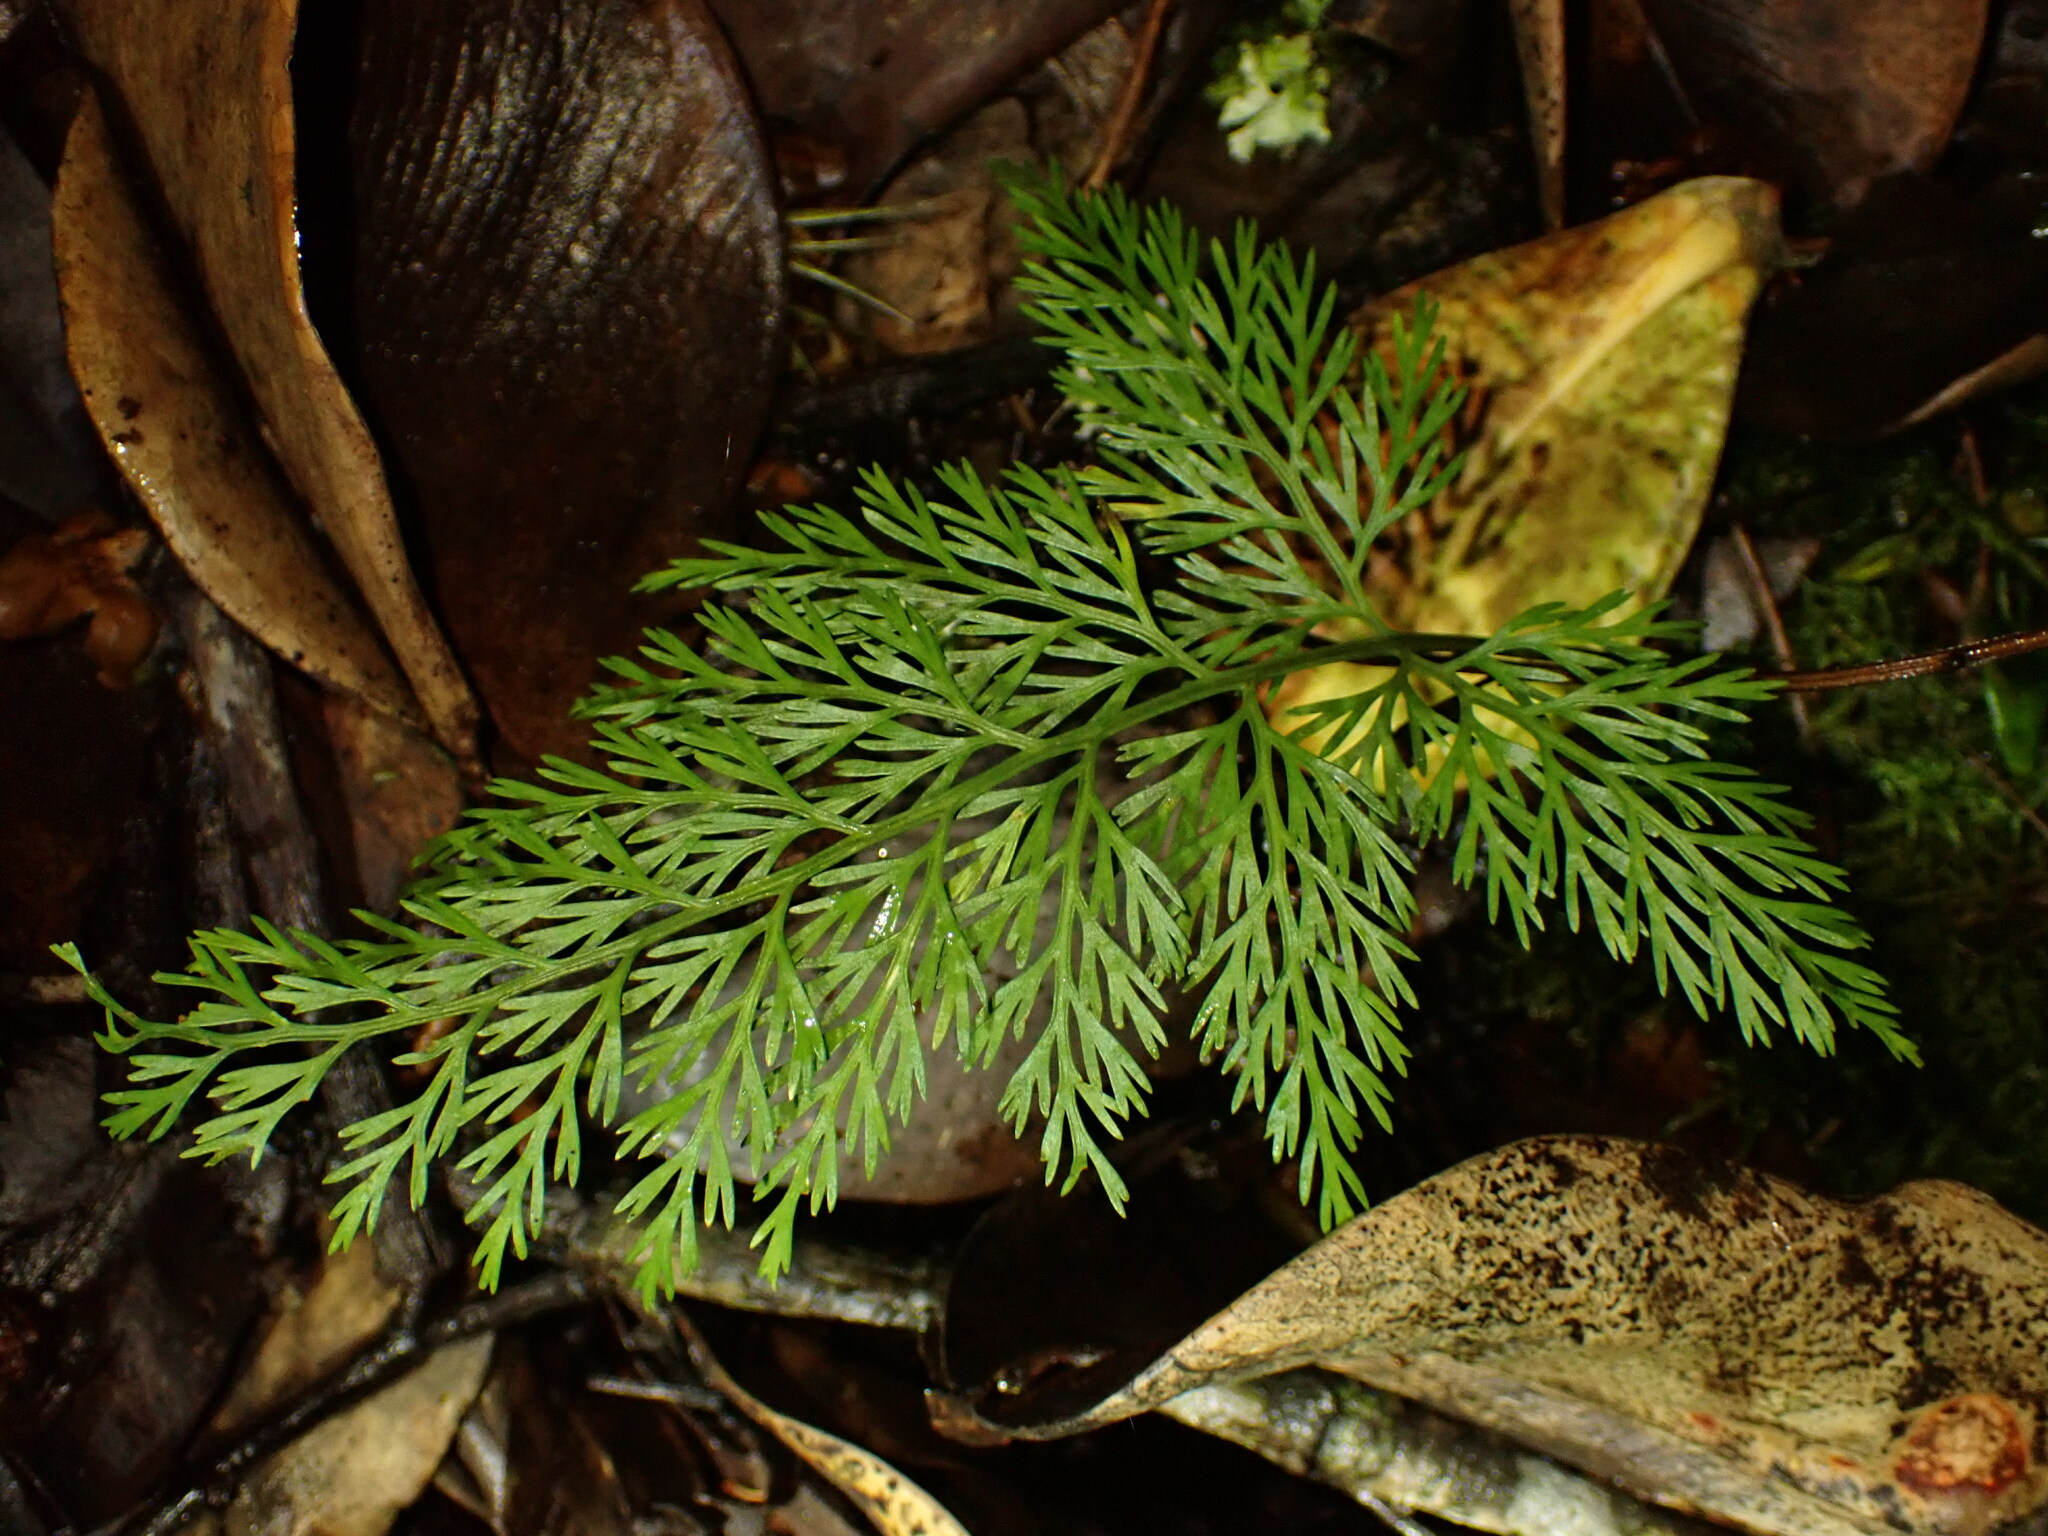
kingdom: Plantae
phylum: Tracheophyta
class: Polypodiopsida
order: Polypodiales
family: Aspleniaceae
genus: Asplenium
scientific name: Asplenium fragrans
